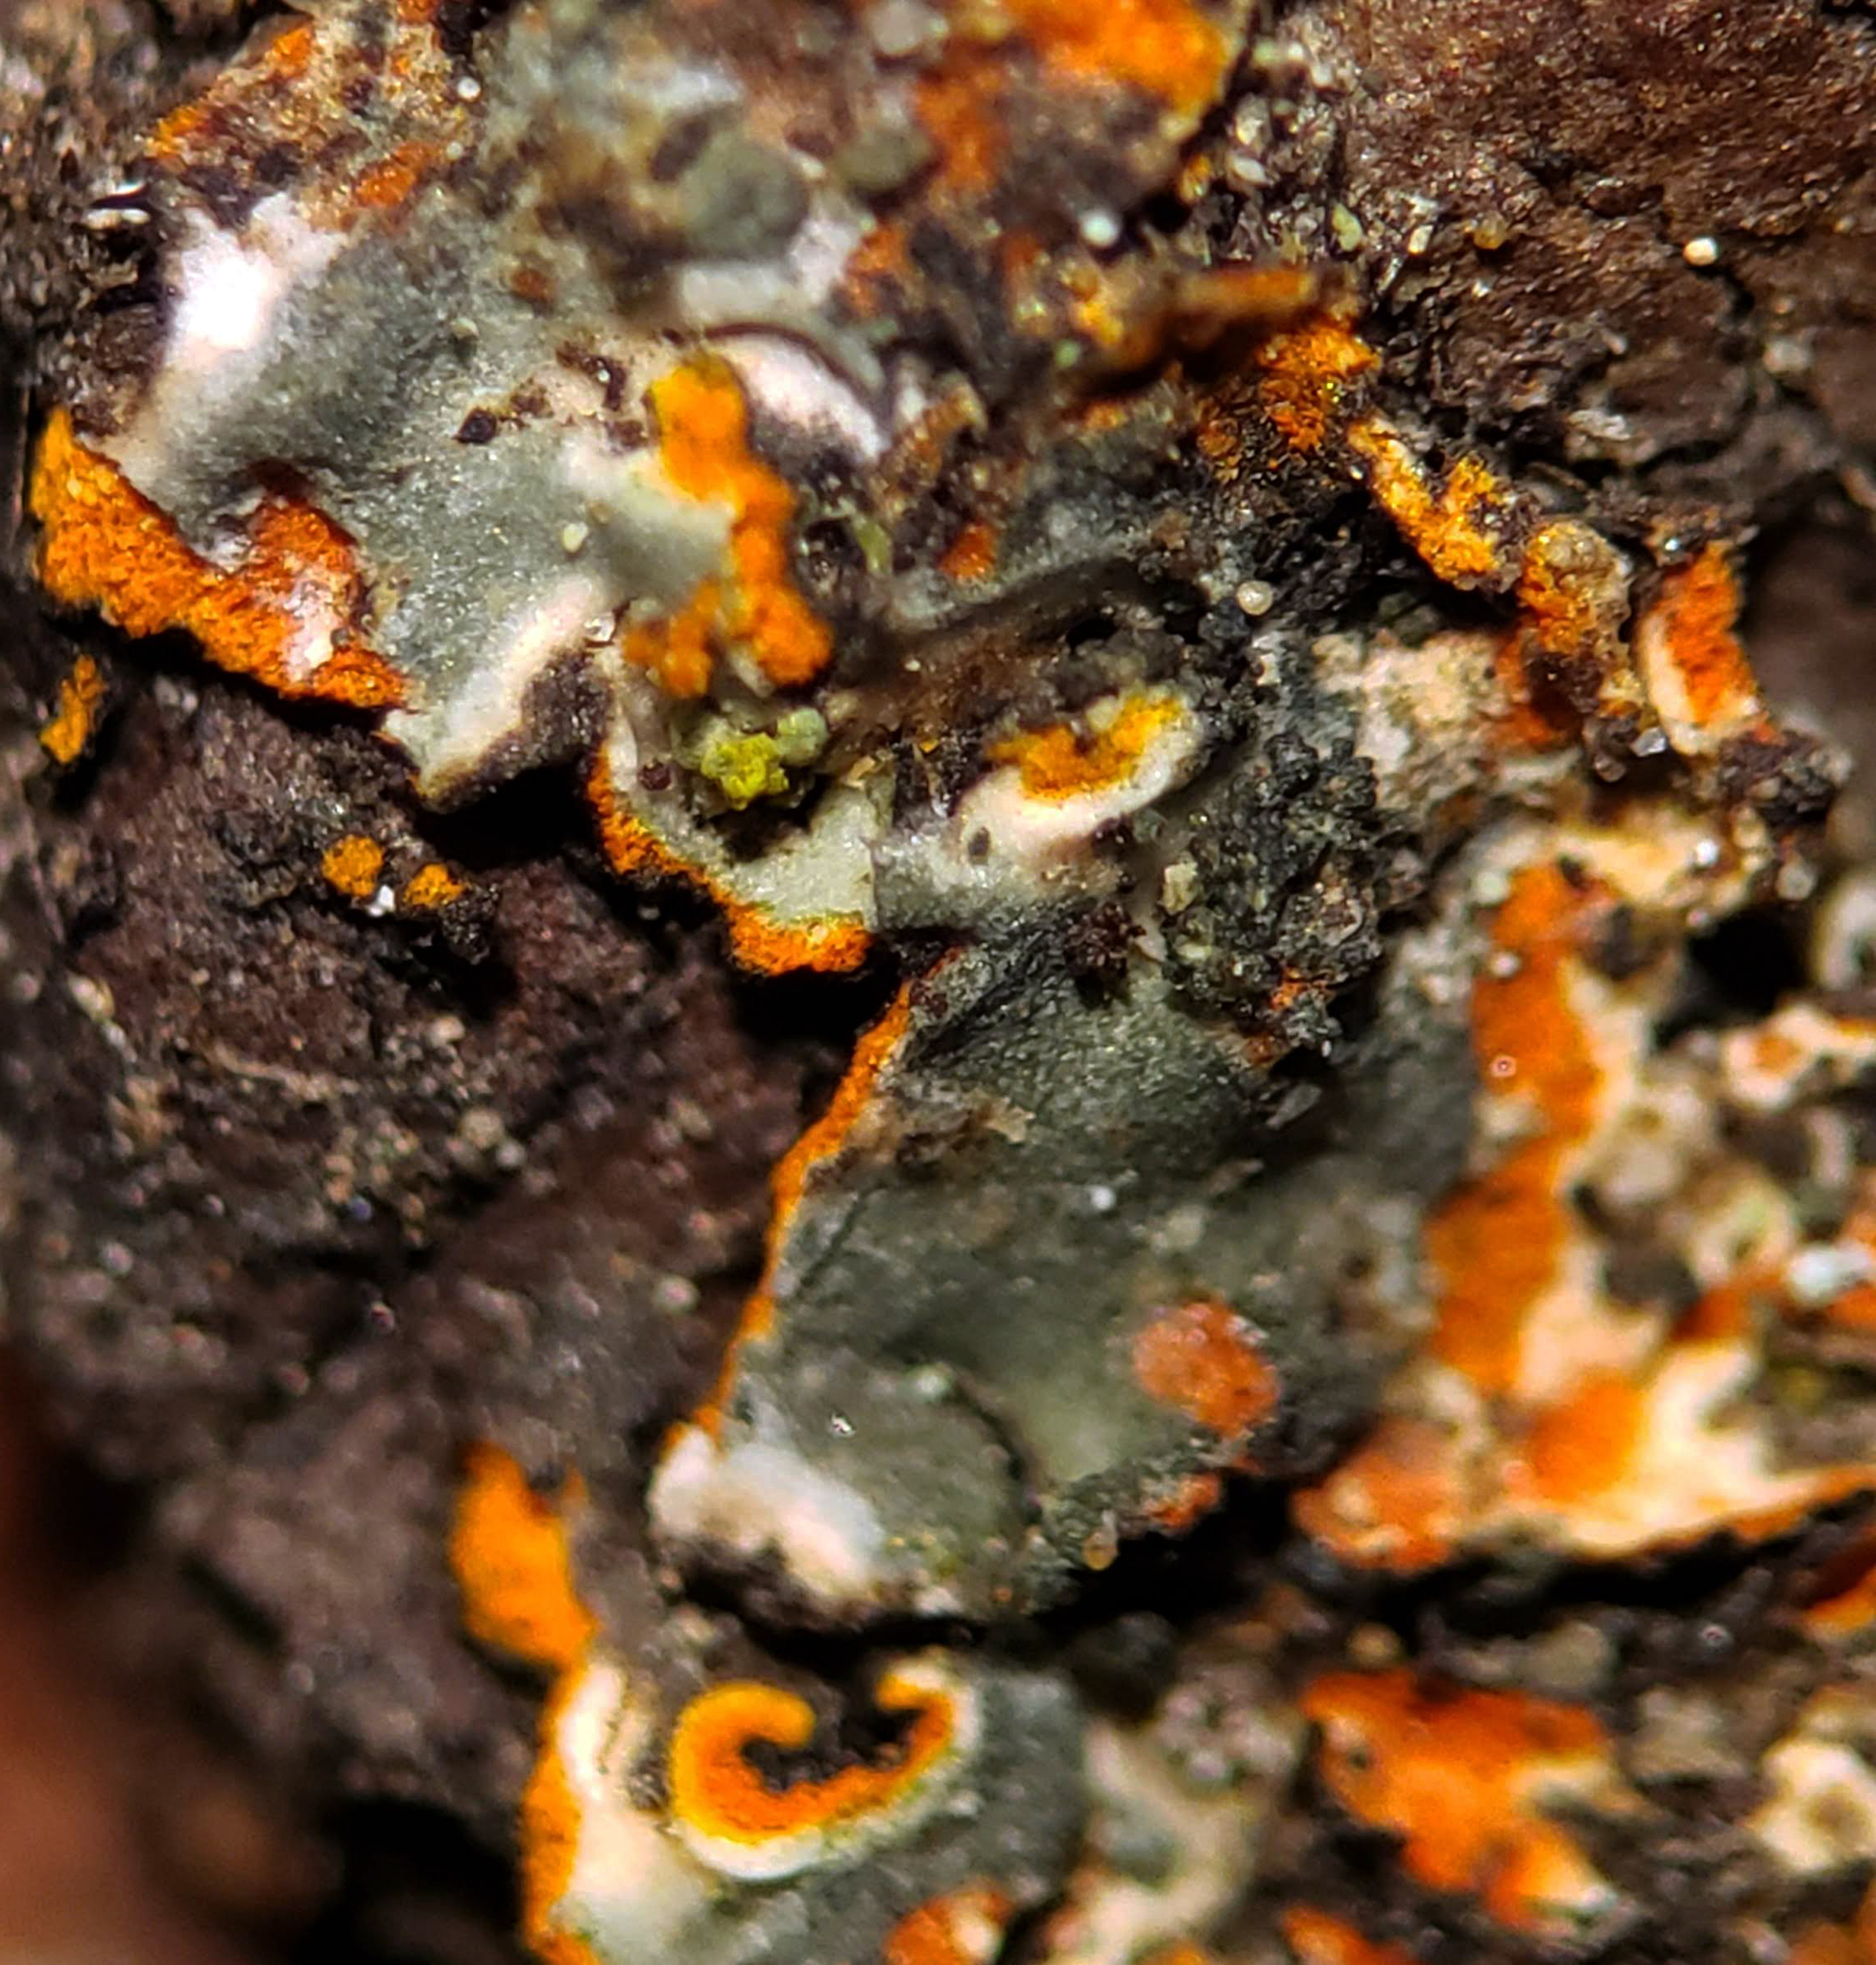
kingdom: Fungi
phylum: Ascomycota
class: Lecanoromycetes
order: Caliciales
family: Physciaceae
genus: Phaeophyscia
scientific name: Phaeophyscia rubropulchra
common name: Orange-cored shadow lichen
